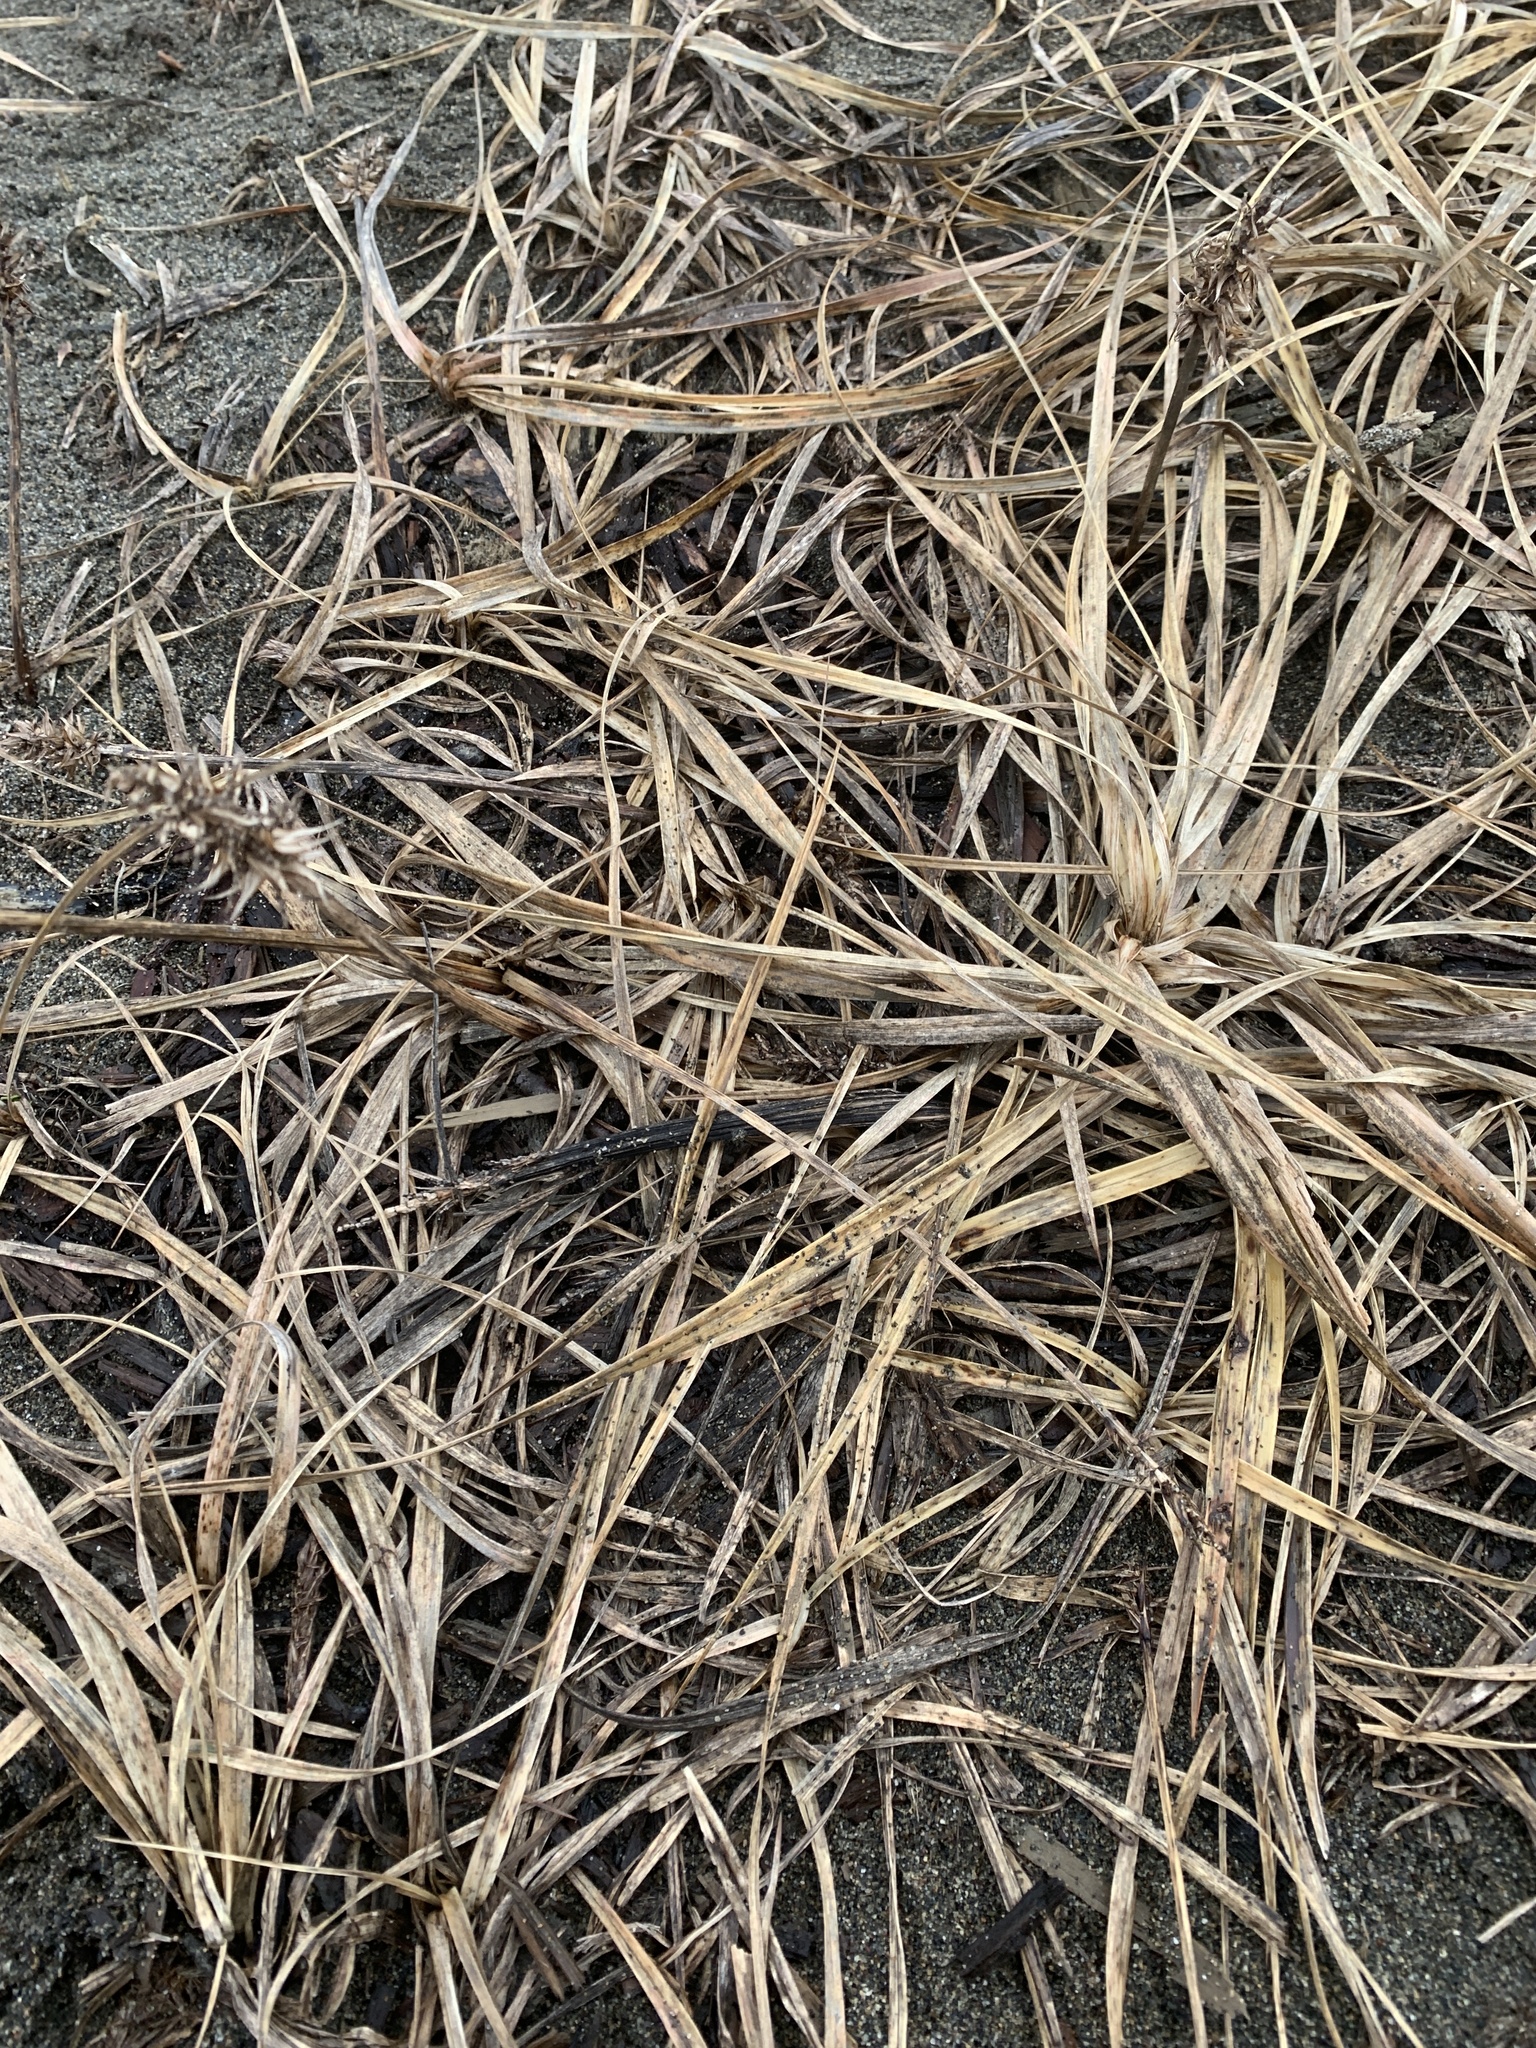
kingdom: Plantae
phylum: Tracheophyta
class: Liliopsida
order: Poales
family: Cyperaceae
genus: Carex
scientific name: Carex macrocephala
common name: Large-head sedge
